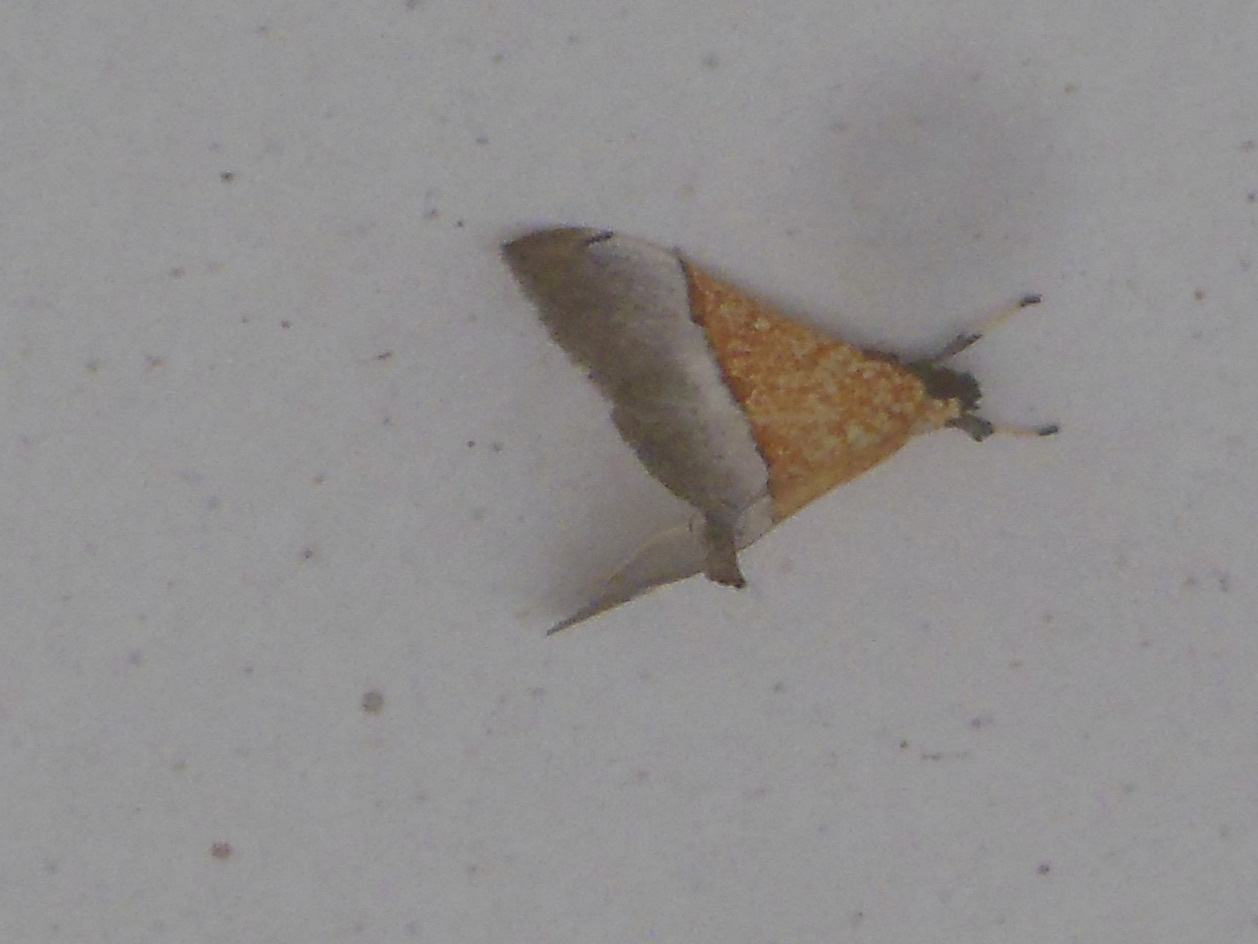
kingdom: Animalia
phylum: Arthropoda
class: Insecta
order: Lepidoptera
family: Crambidae
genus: Agrotera
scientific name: Agrotera scissalis
